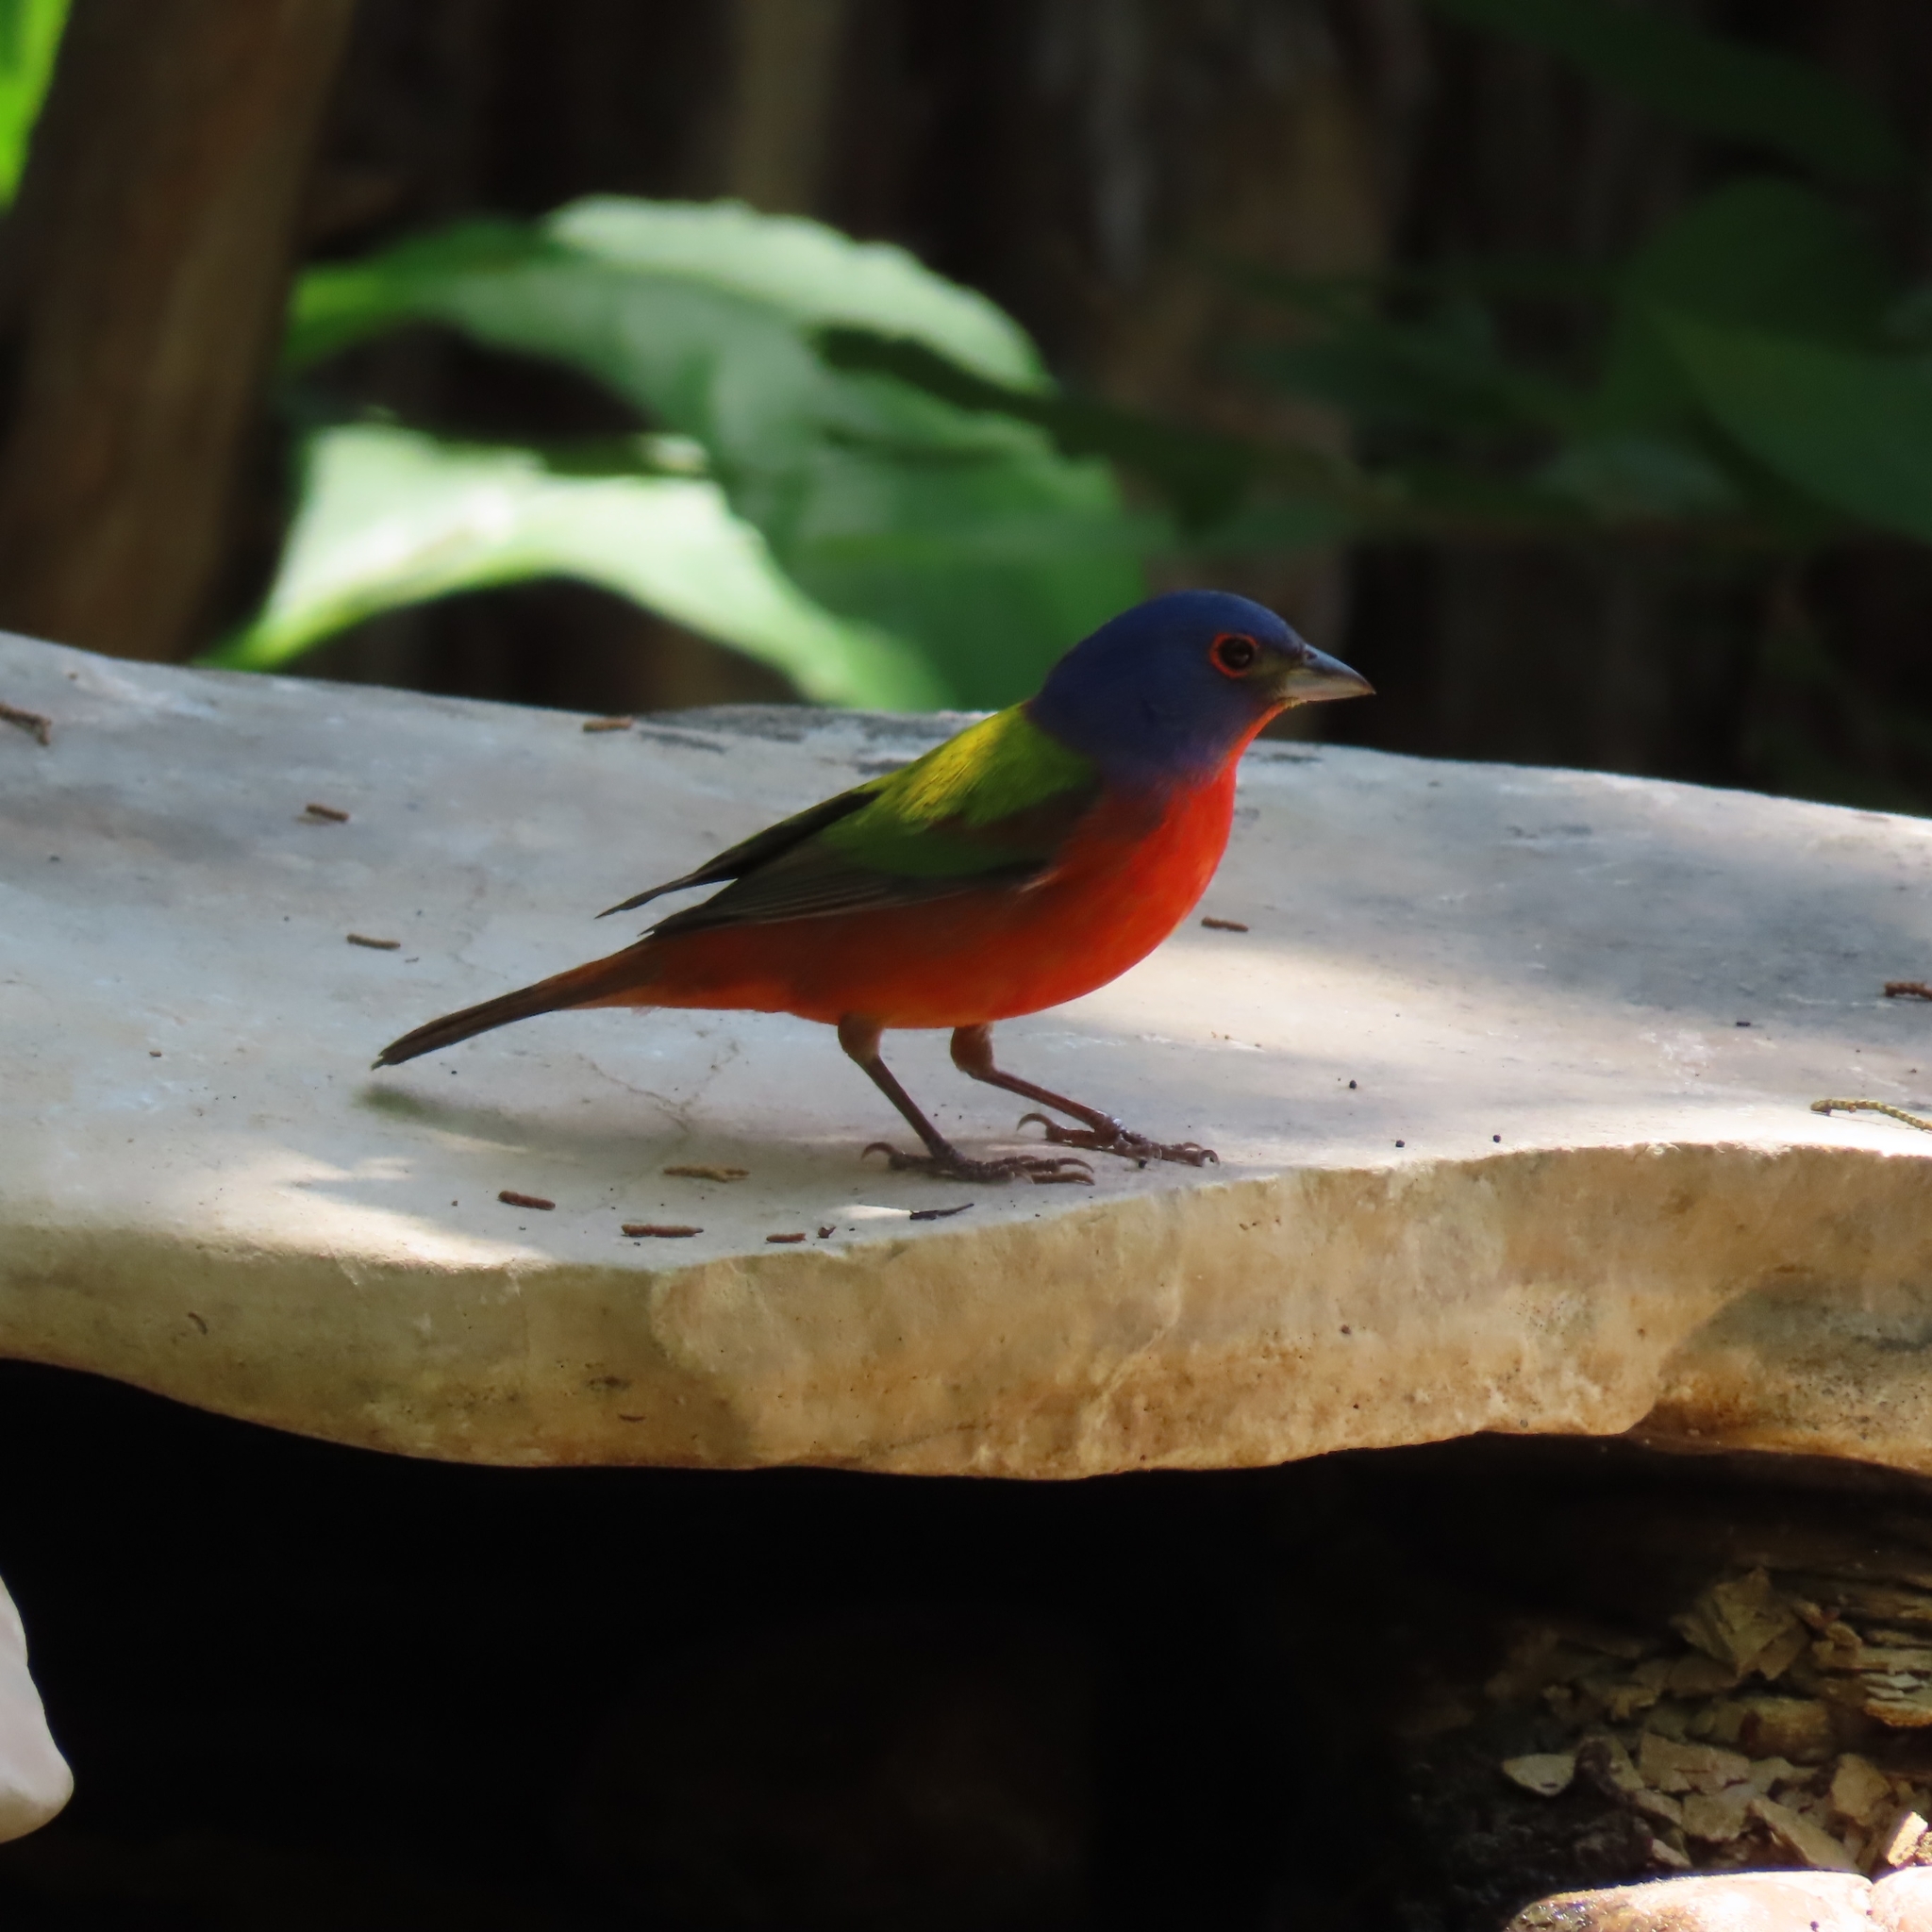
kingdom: Animalia
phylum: Chordata
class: Aves
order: Passeriformes
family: Cardinalidae
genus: Passerina
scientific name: Passerina ciris
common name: Painted bunting
